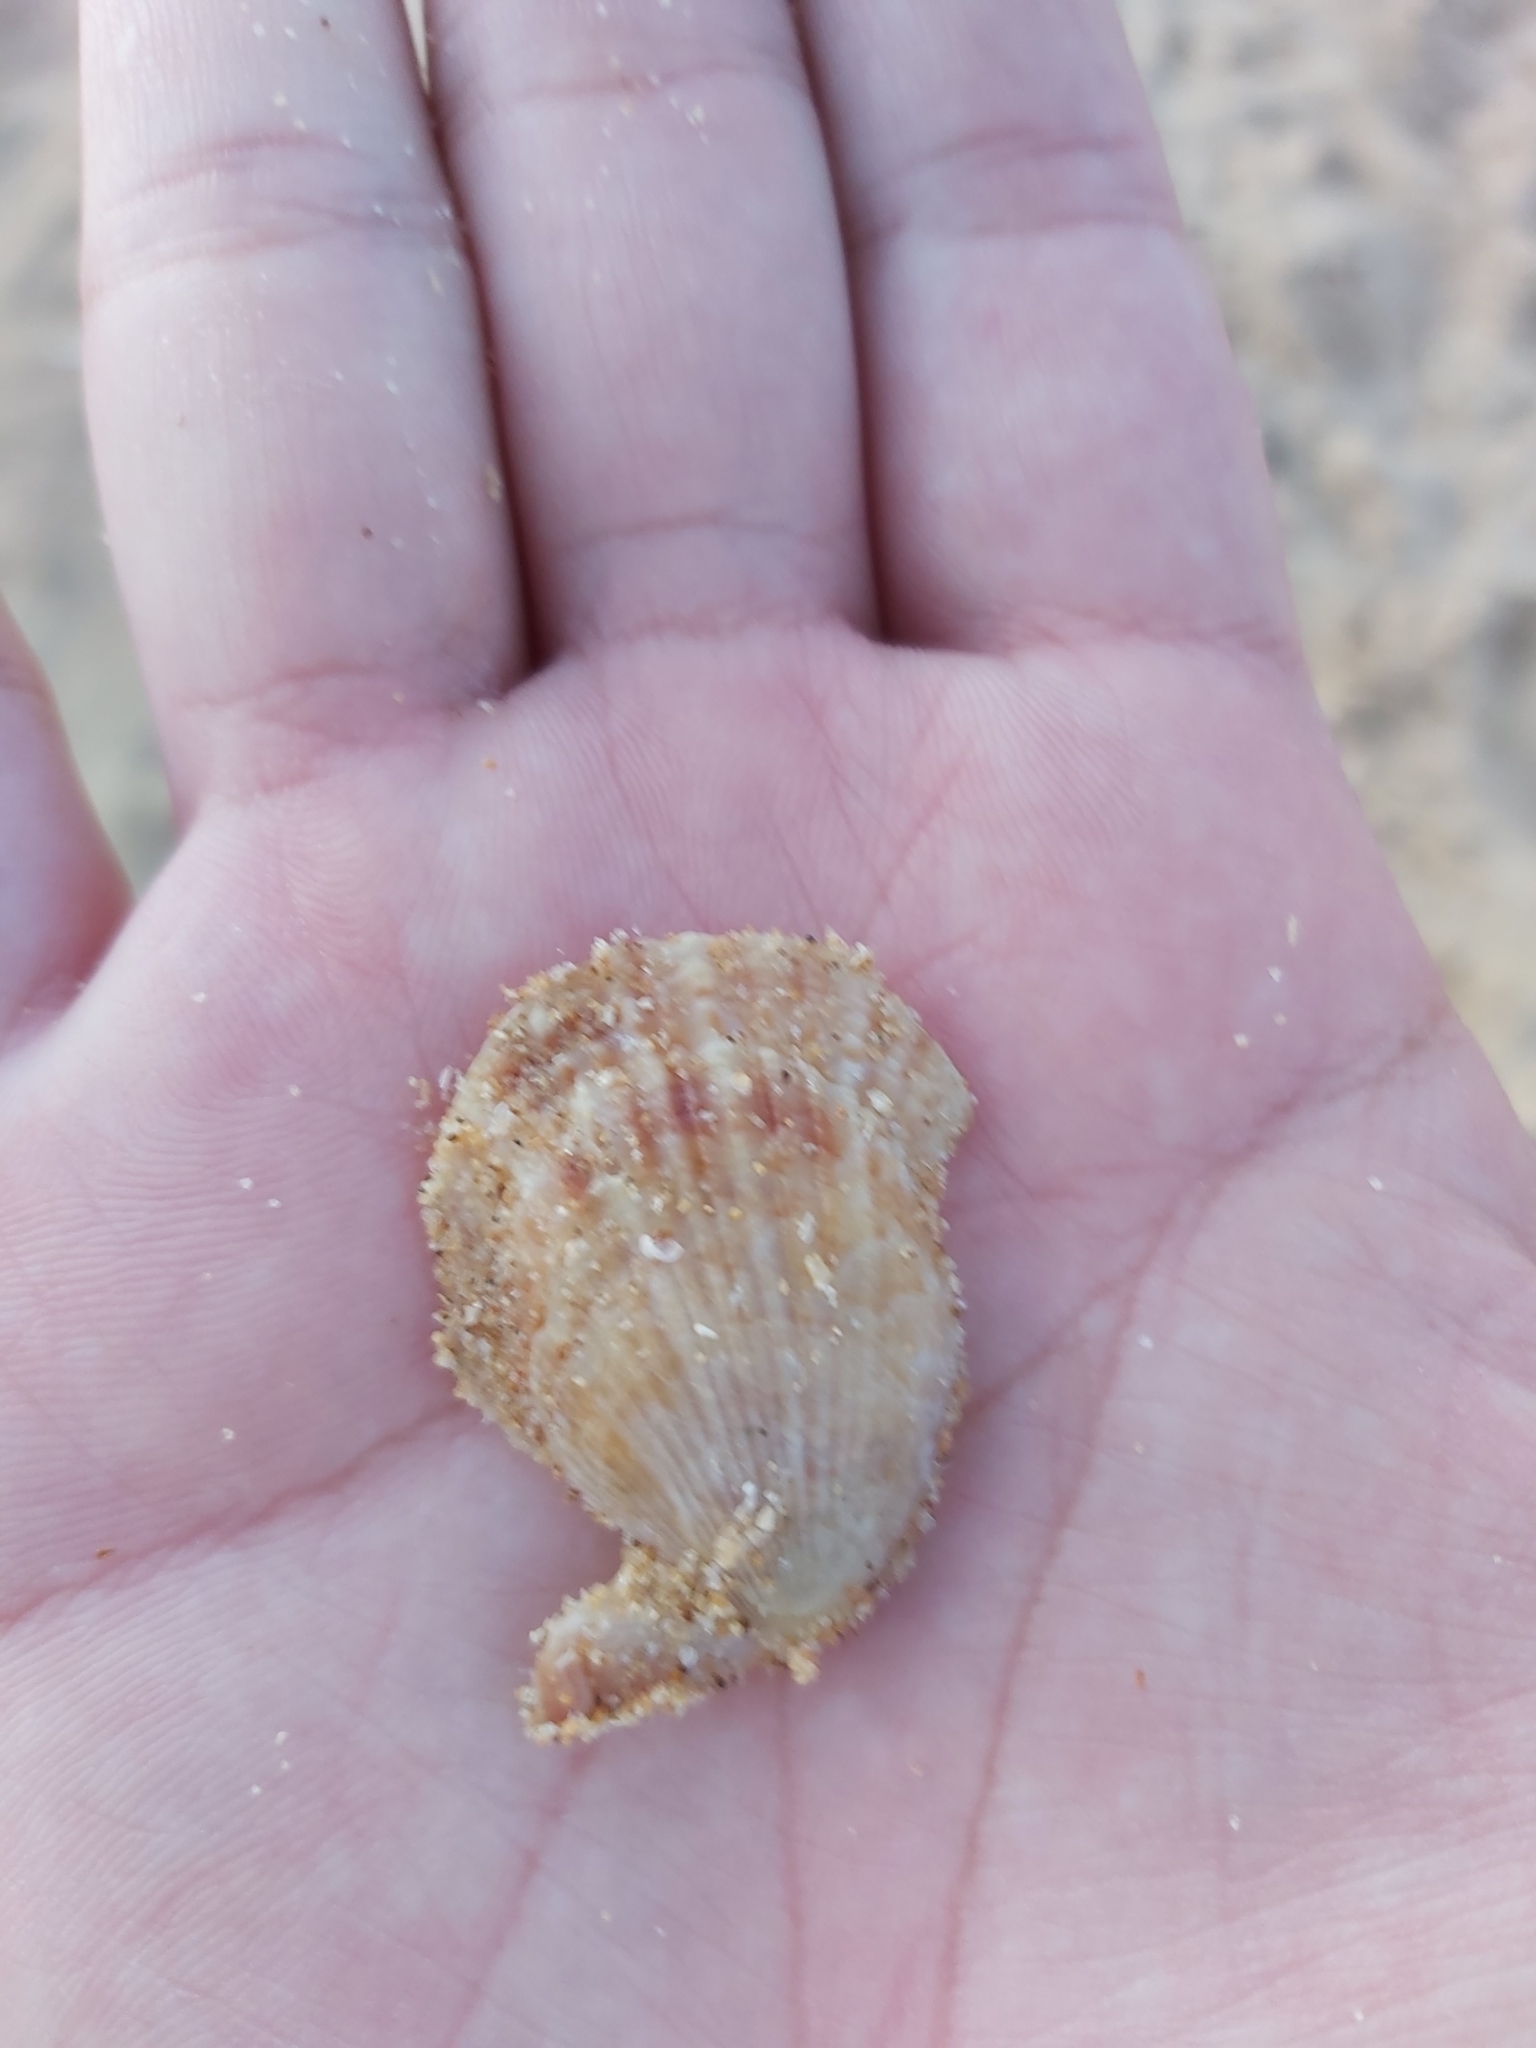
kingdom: Animalia
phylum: Mollusca
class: Bivalvia
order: Pectinida
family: Pectinidae
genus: Scaeochlamys
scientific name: Scaeochlamys livida
